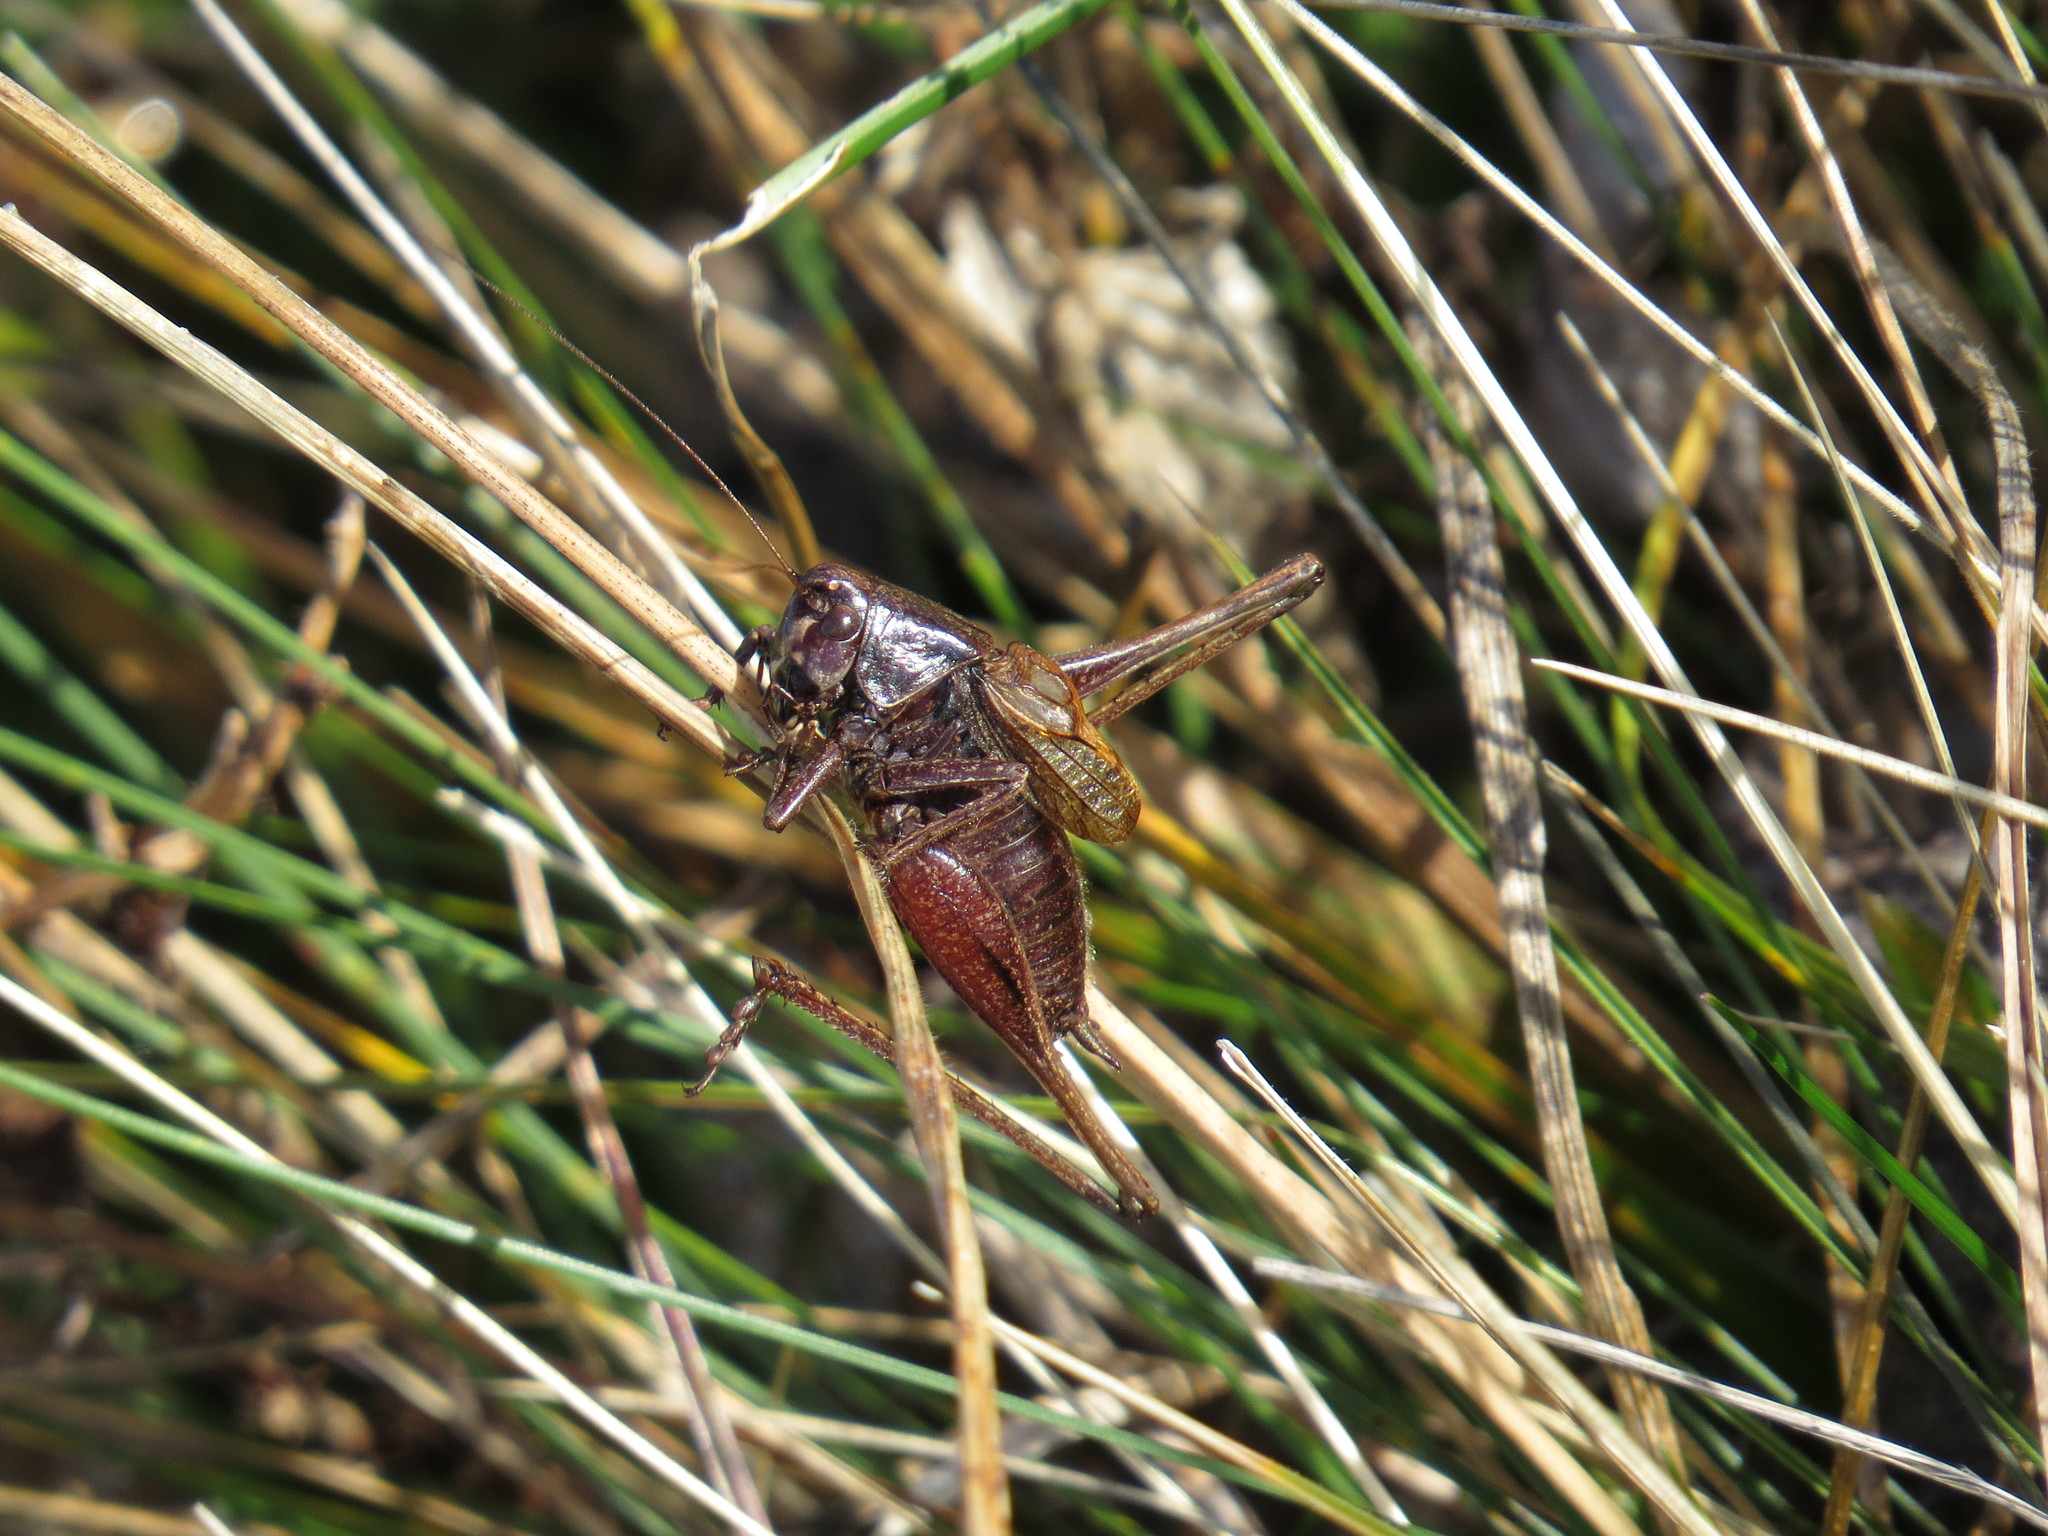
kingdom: Animalia
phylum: Arthropoda
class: Insecta
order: Orthoptera
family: Tettigoniidae
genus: Metrioptera
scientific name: Metrioptera saussuriana
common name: Purple meadow bush-cricket
